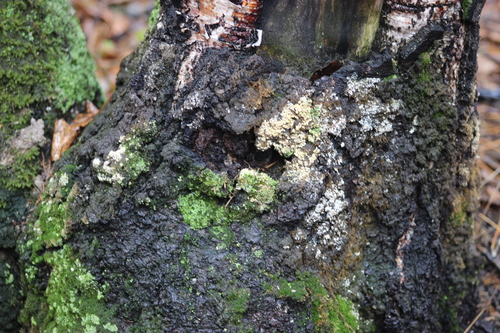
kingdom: Fungi
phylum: Ascomycota
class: Lecanoromycetes
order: Lecanorales
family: Stereocaulaceae
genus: Lepraria
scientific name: Lepraria lobificans
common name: Fluffy dust lichen
